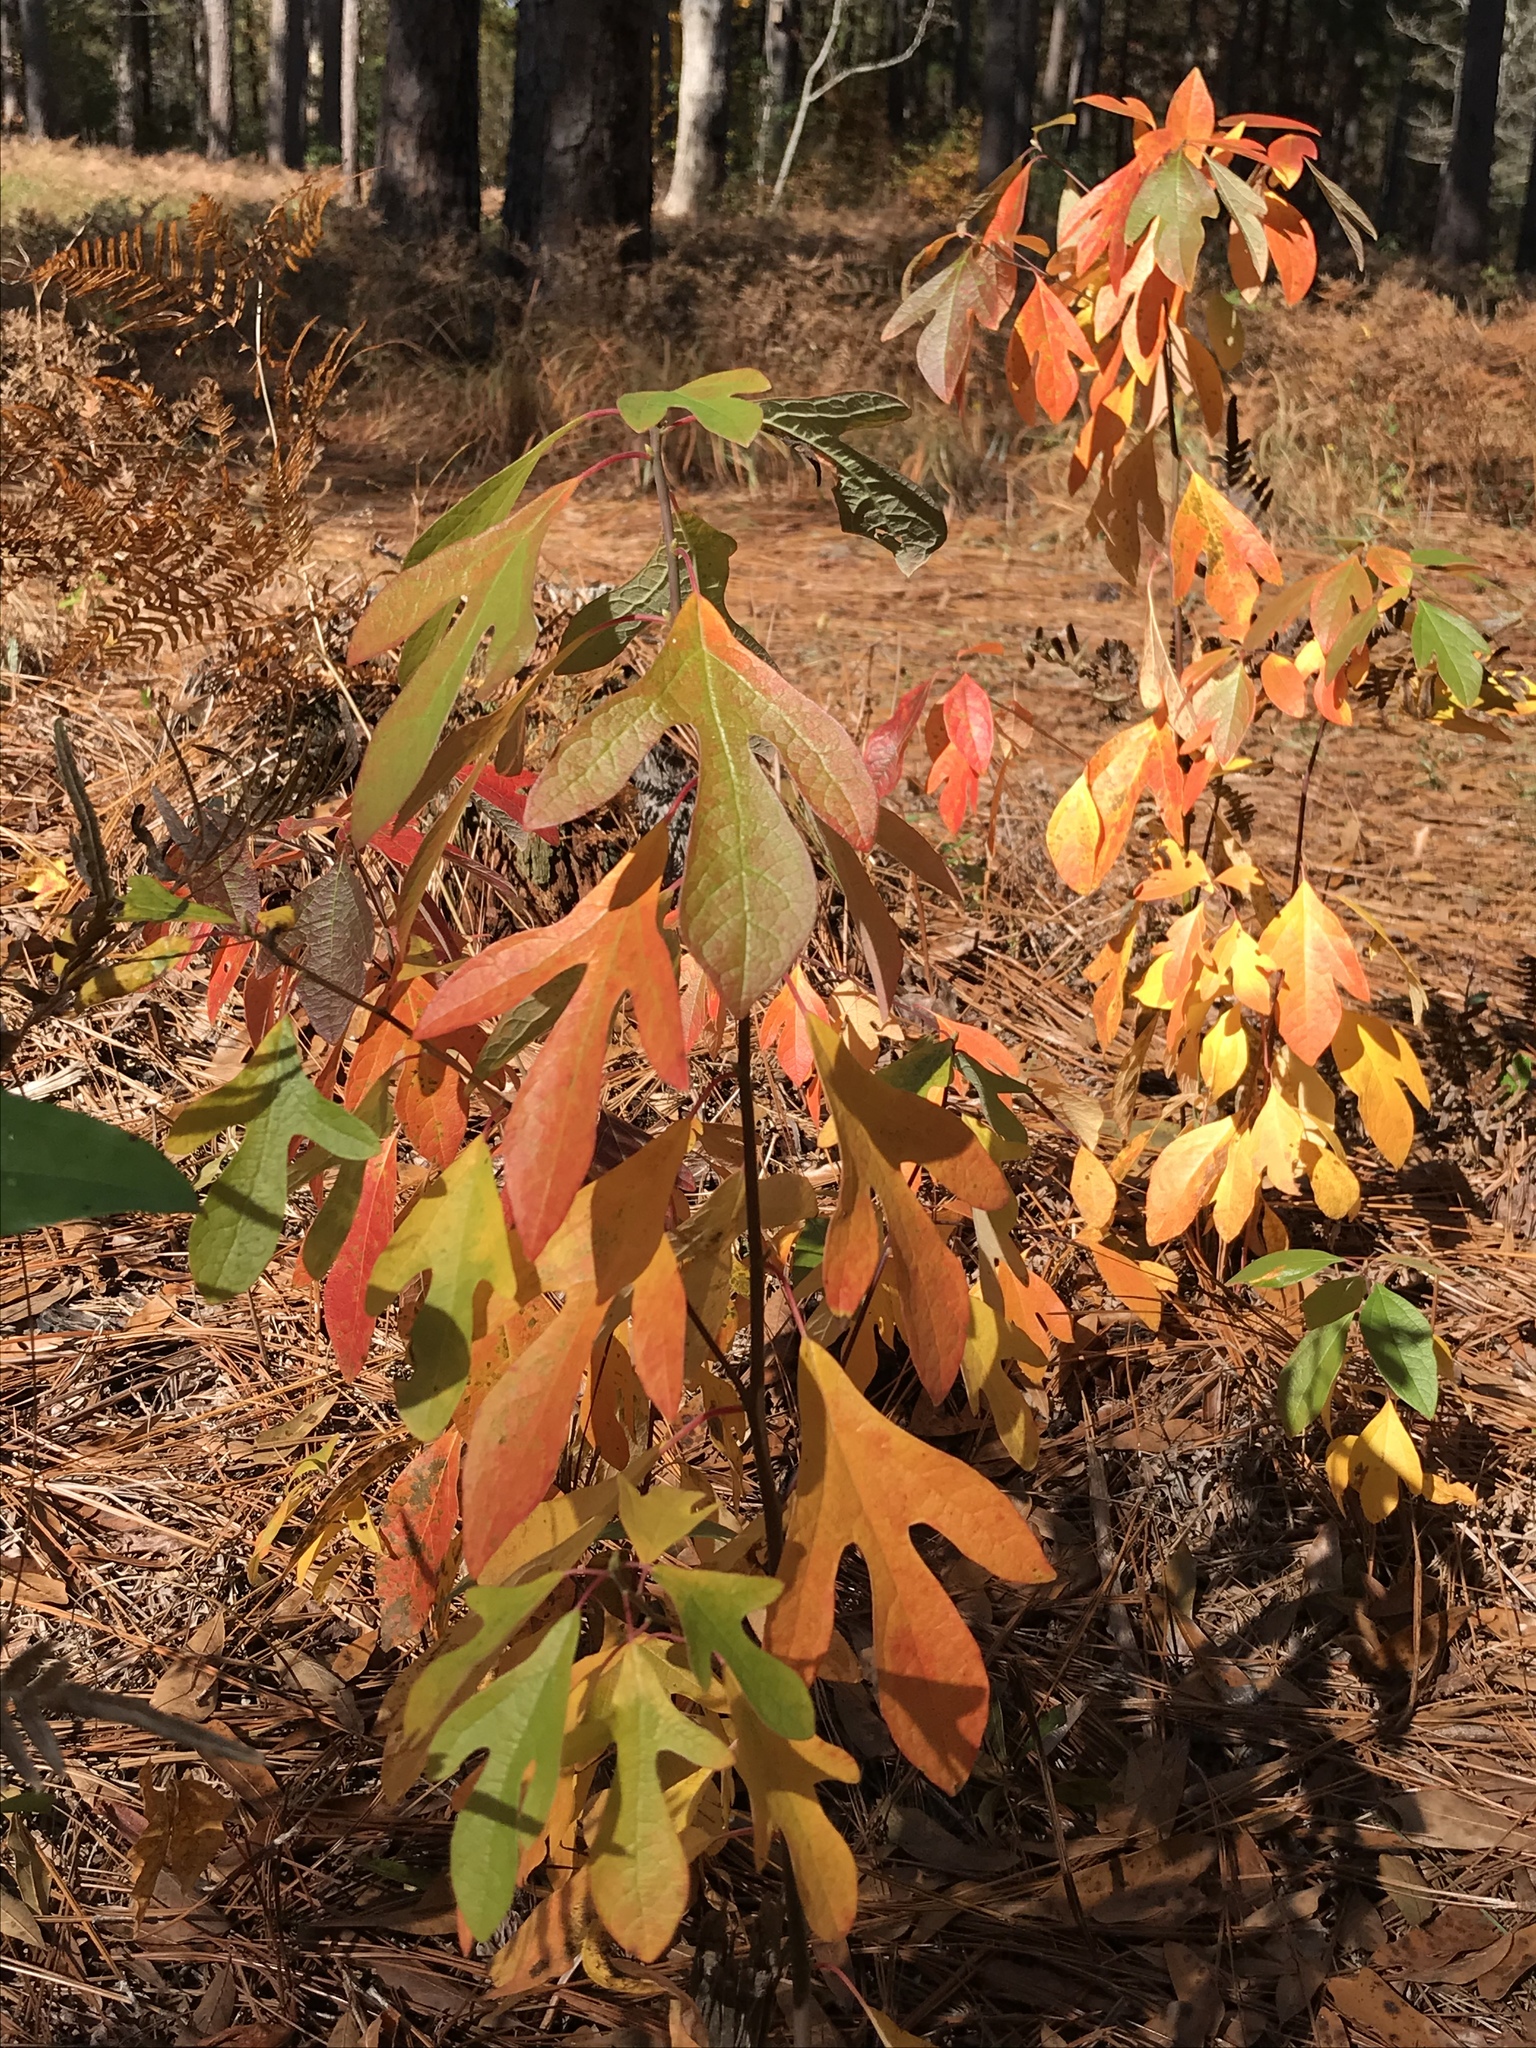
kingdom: Plantae
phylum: Tracheophyta
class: Magnoliopsida
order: Laurales
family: Lauraceae
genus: Sassafras
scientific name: Sassafras albidum
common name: Sassafras
